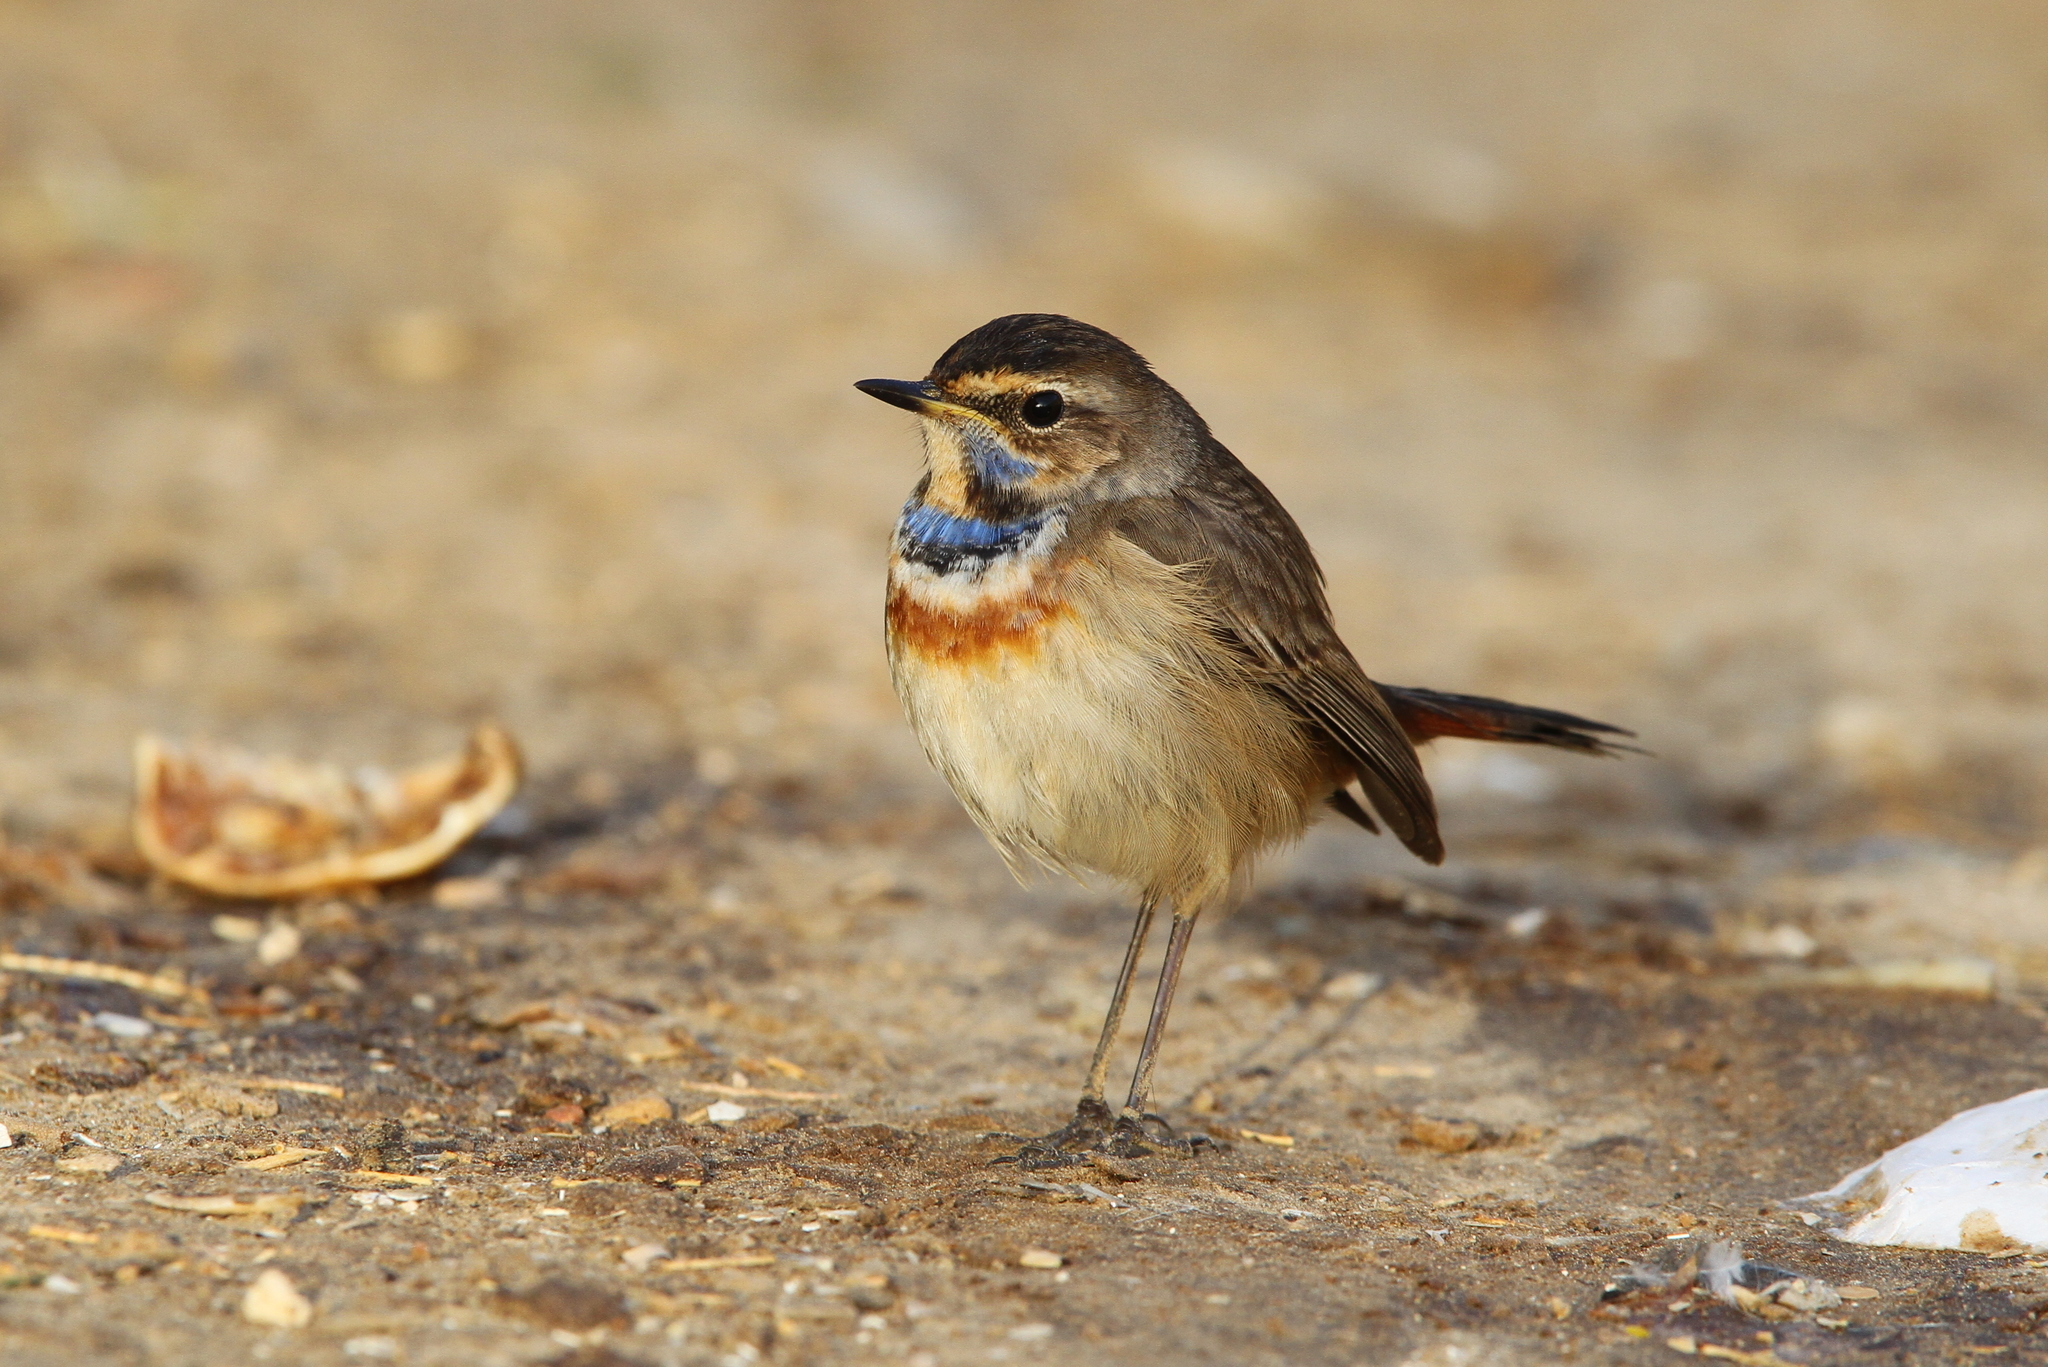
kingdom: Animalia
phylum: Chordata
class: Aves
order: Passeriformes
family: Muscicapidae
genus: Luscinia
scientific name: Luscinia svecica
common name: Bluethroat
